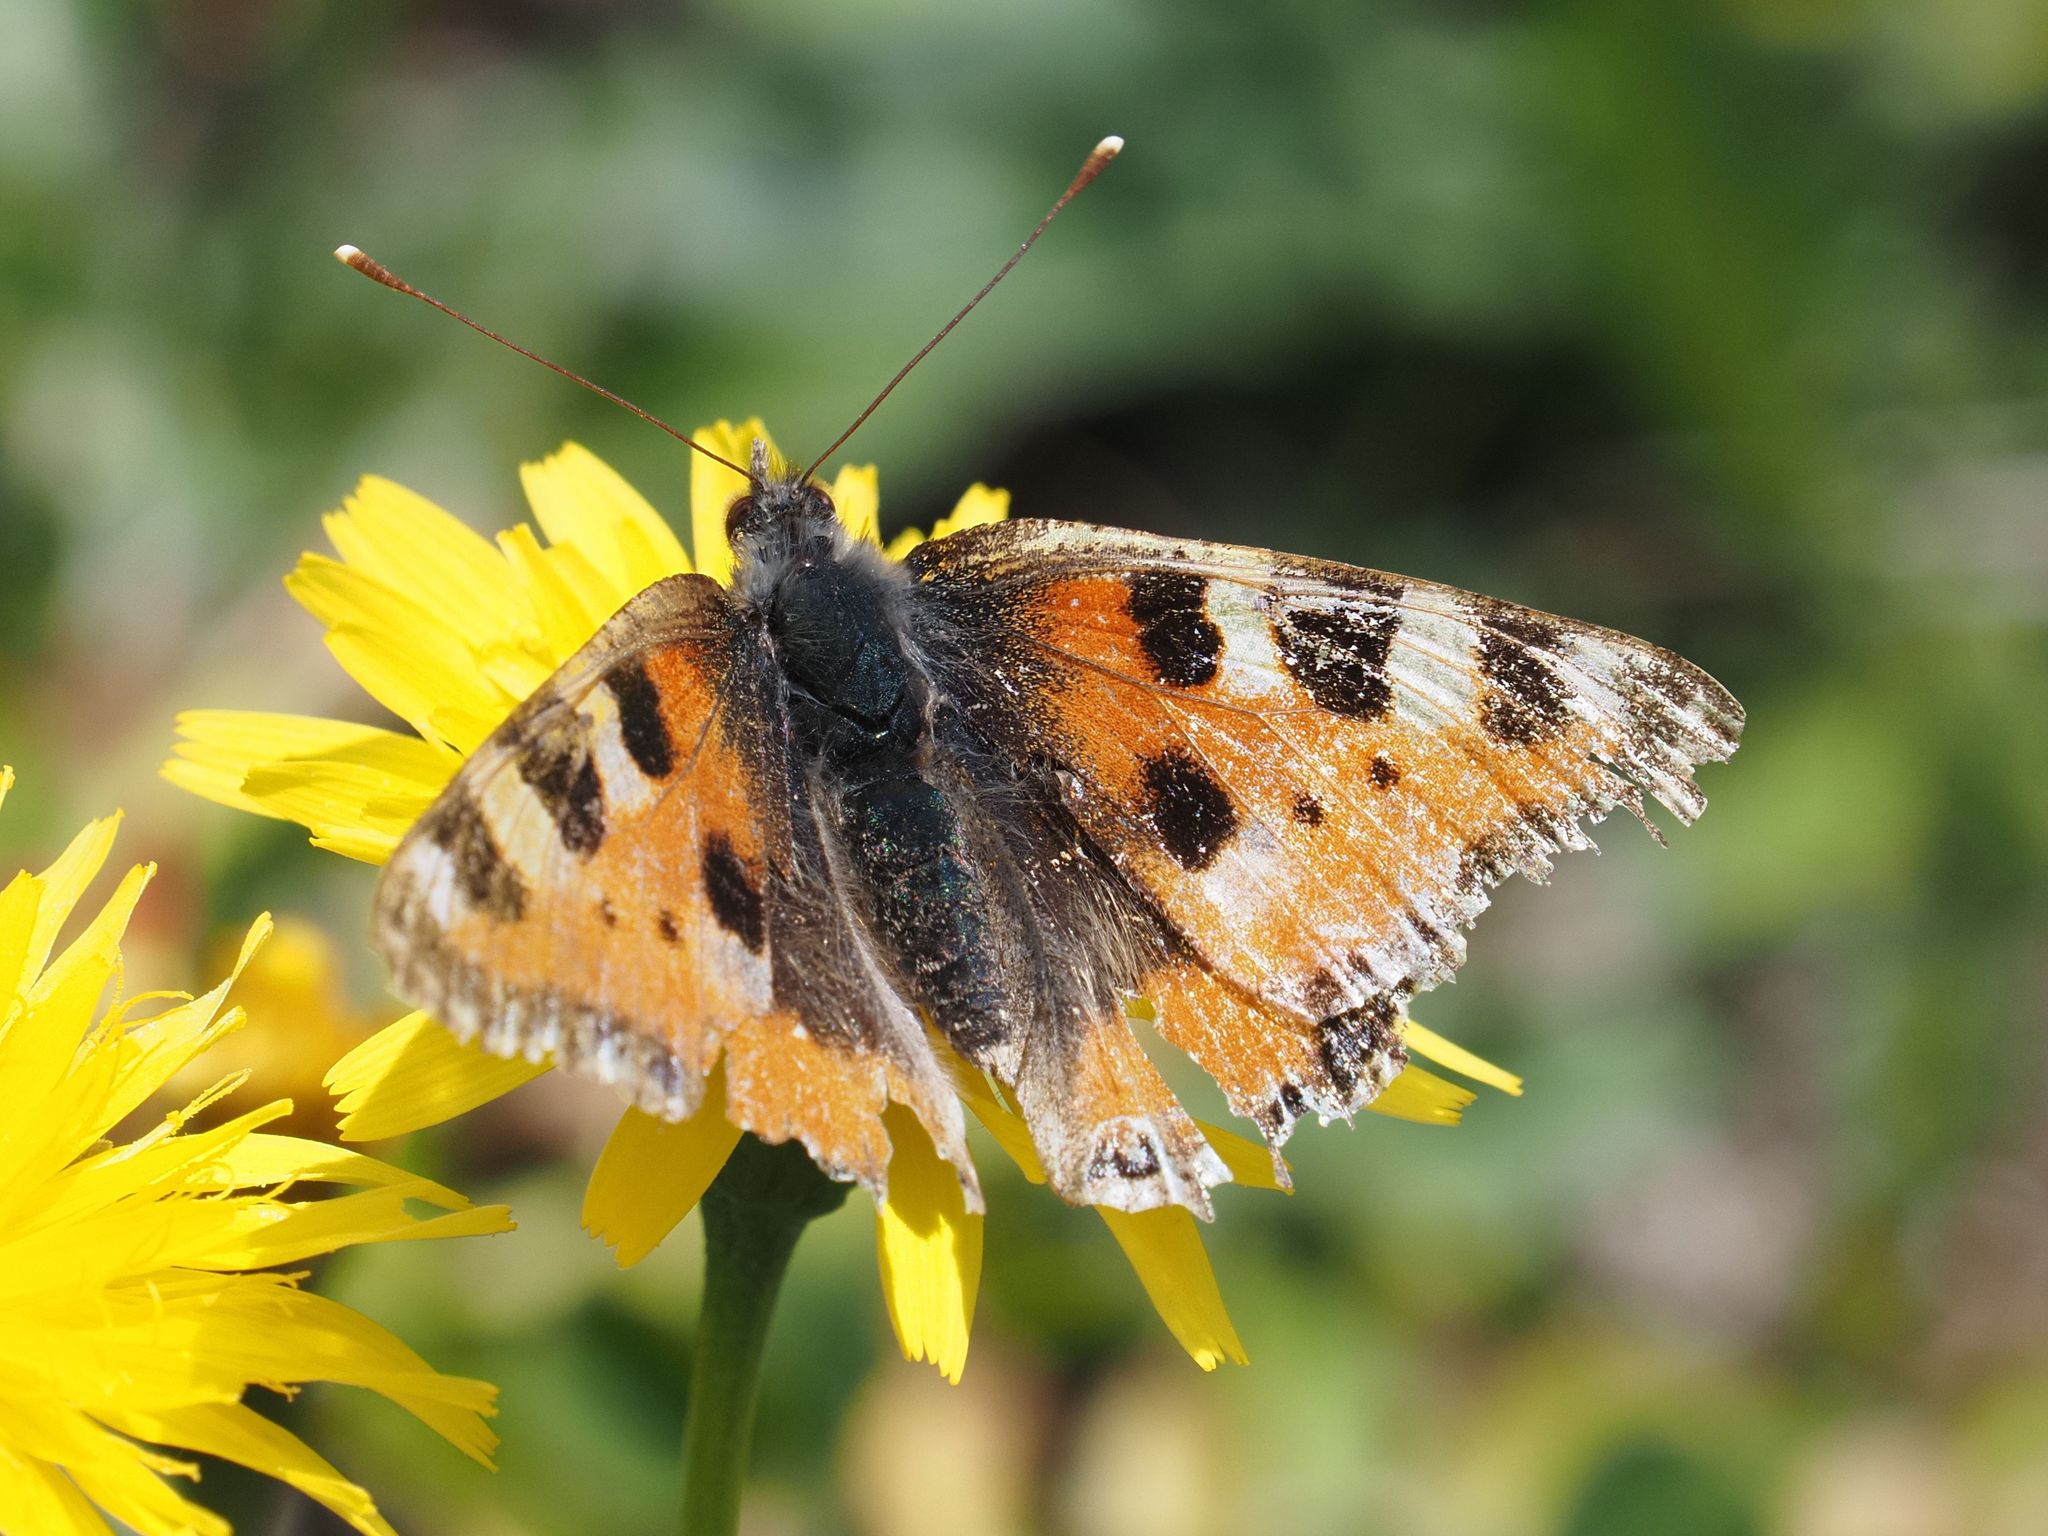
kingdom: Animalia
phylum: Arthropoda
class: Insecta
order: Lepidoptera
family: Nymphalidae
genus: Aglais
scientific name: Aglais urticae
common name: Small tortoiseshell
